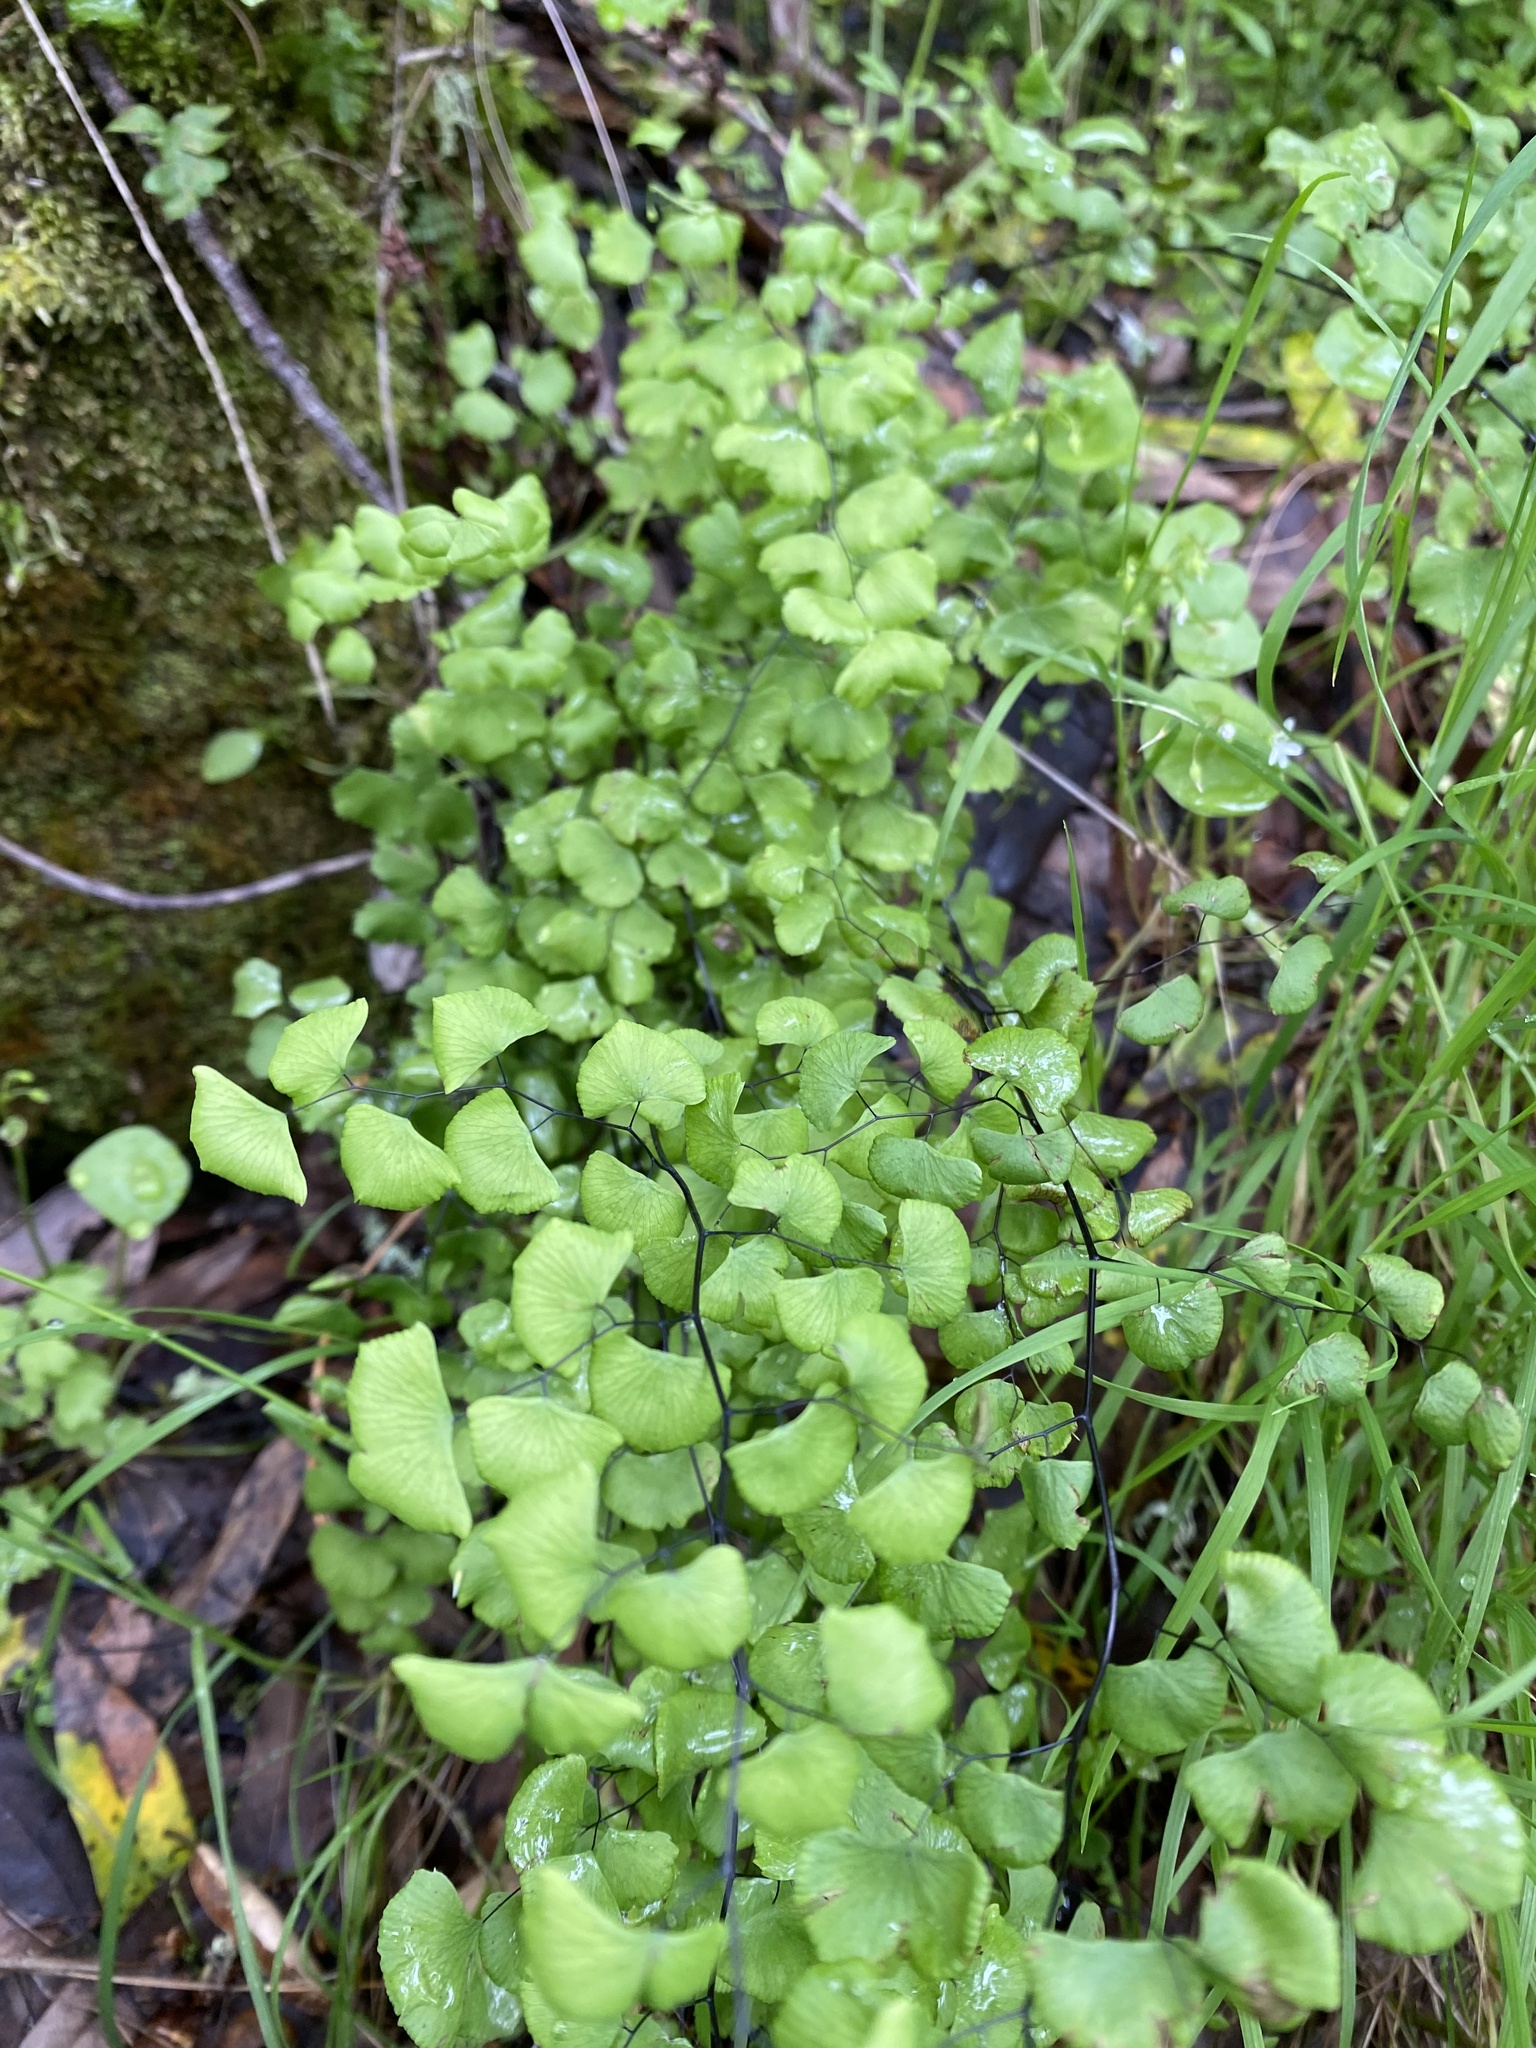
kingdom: Plantae
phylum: Tracheophyta
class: Polypodiopsida
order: Polypodiales
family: Pteridaceae
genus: Adiantum
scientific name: Adiantum jordanii
